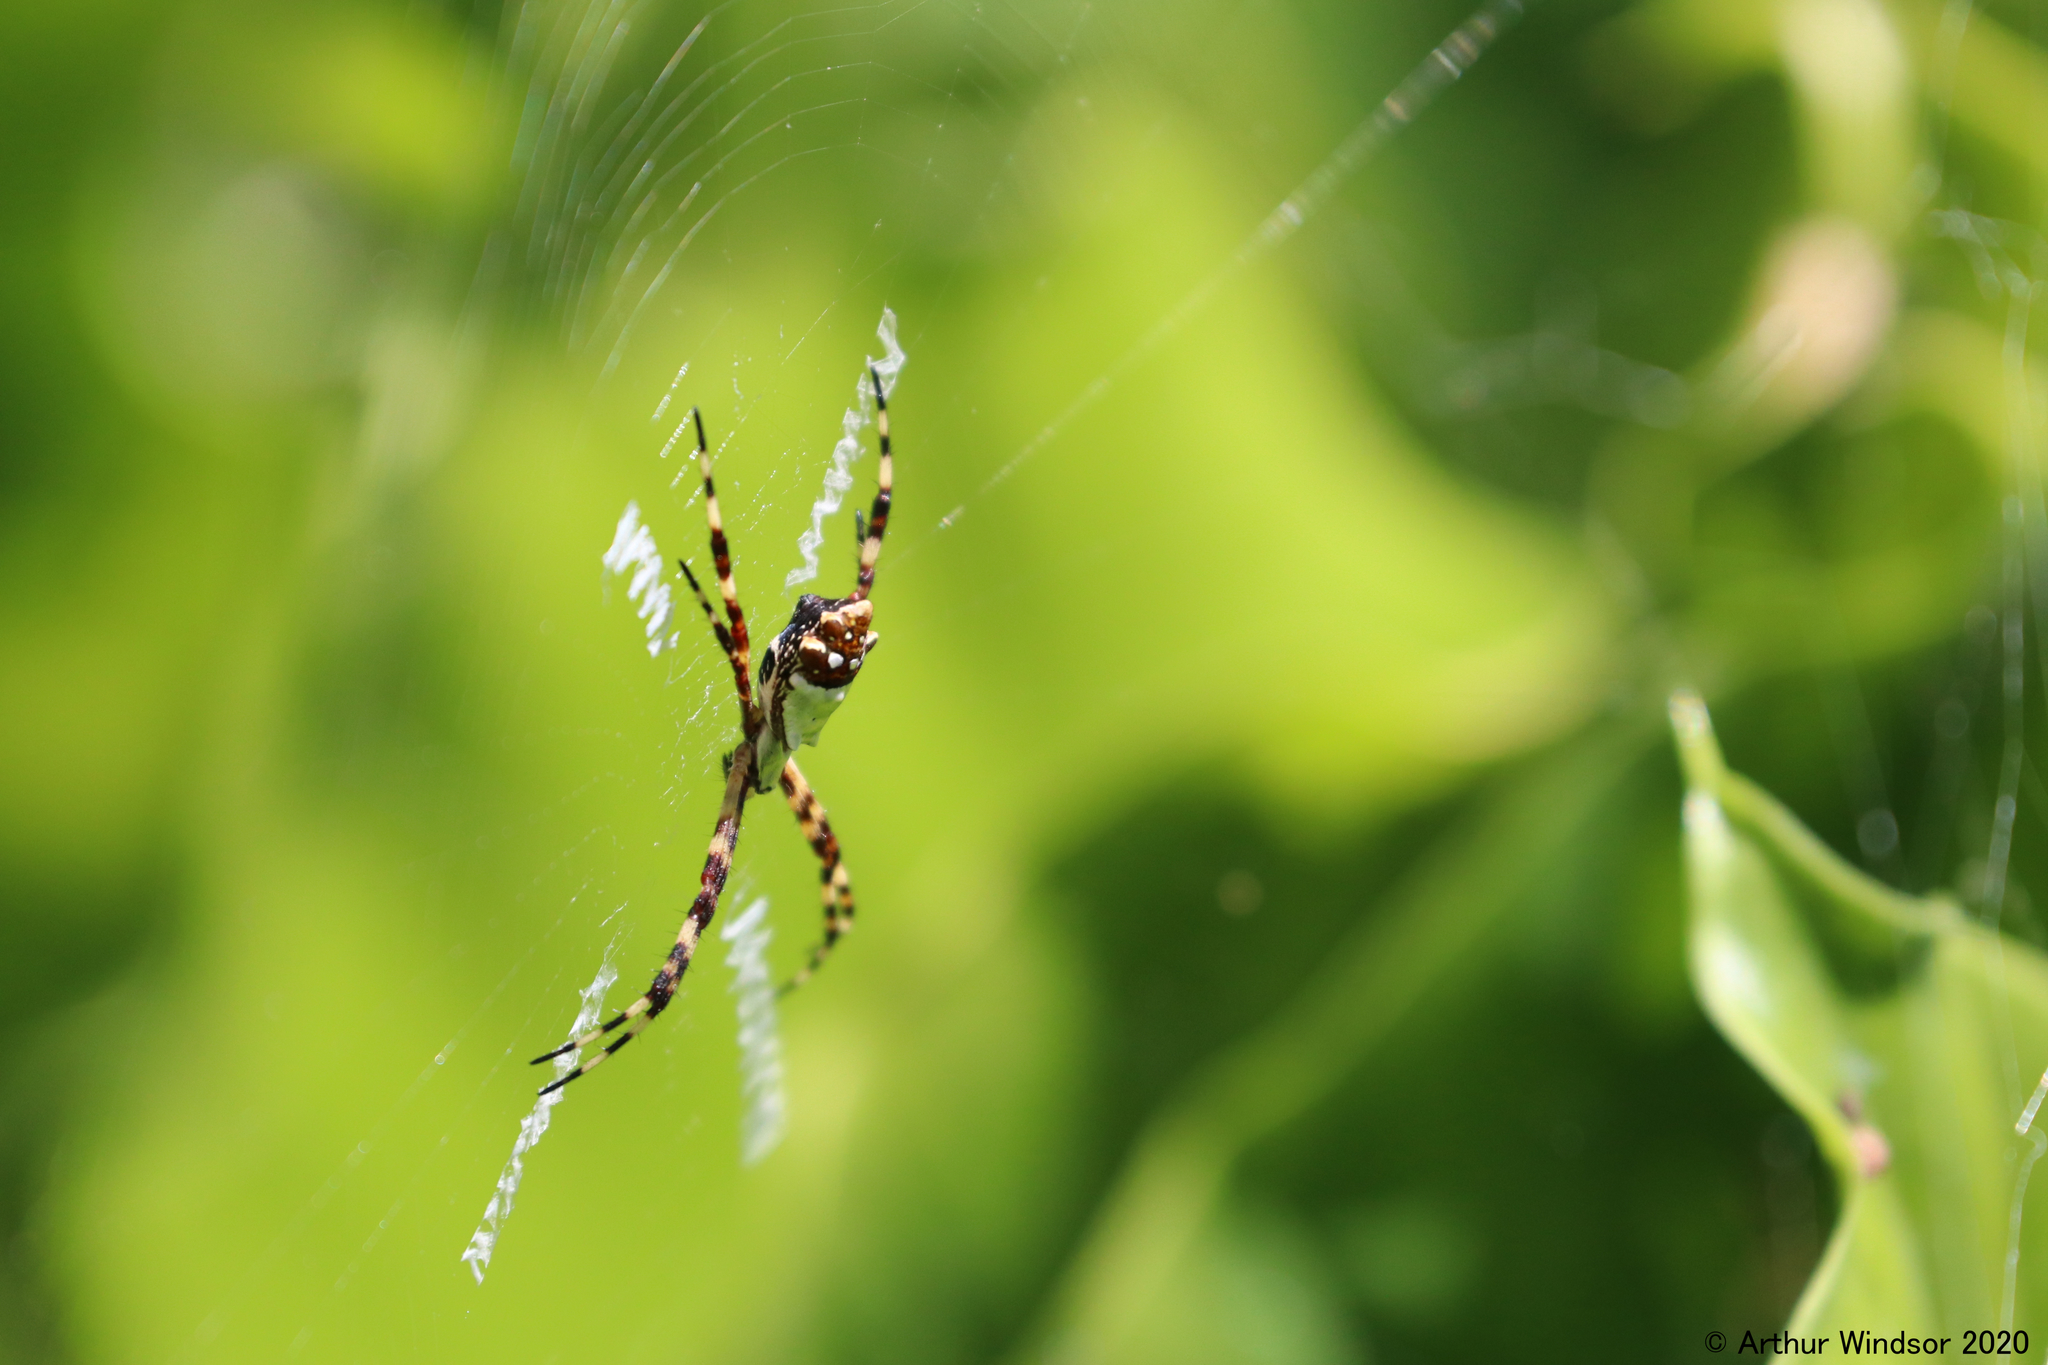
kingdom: Animalia
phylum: Arthropoda
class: Arachnida
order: Araneae
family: Araneidae
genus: Argiope
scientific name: Argiope argentata
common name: Orb weavers
